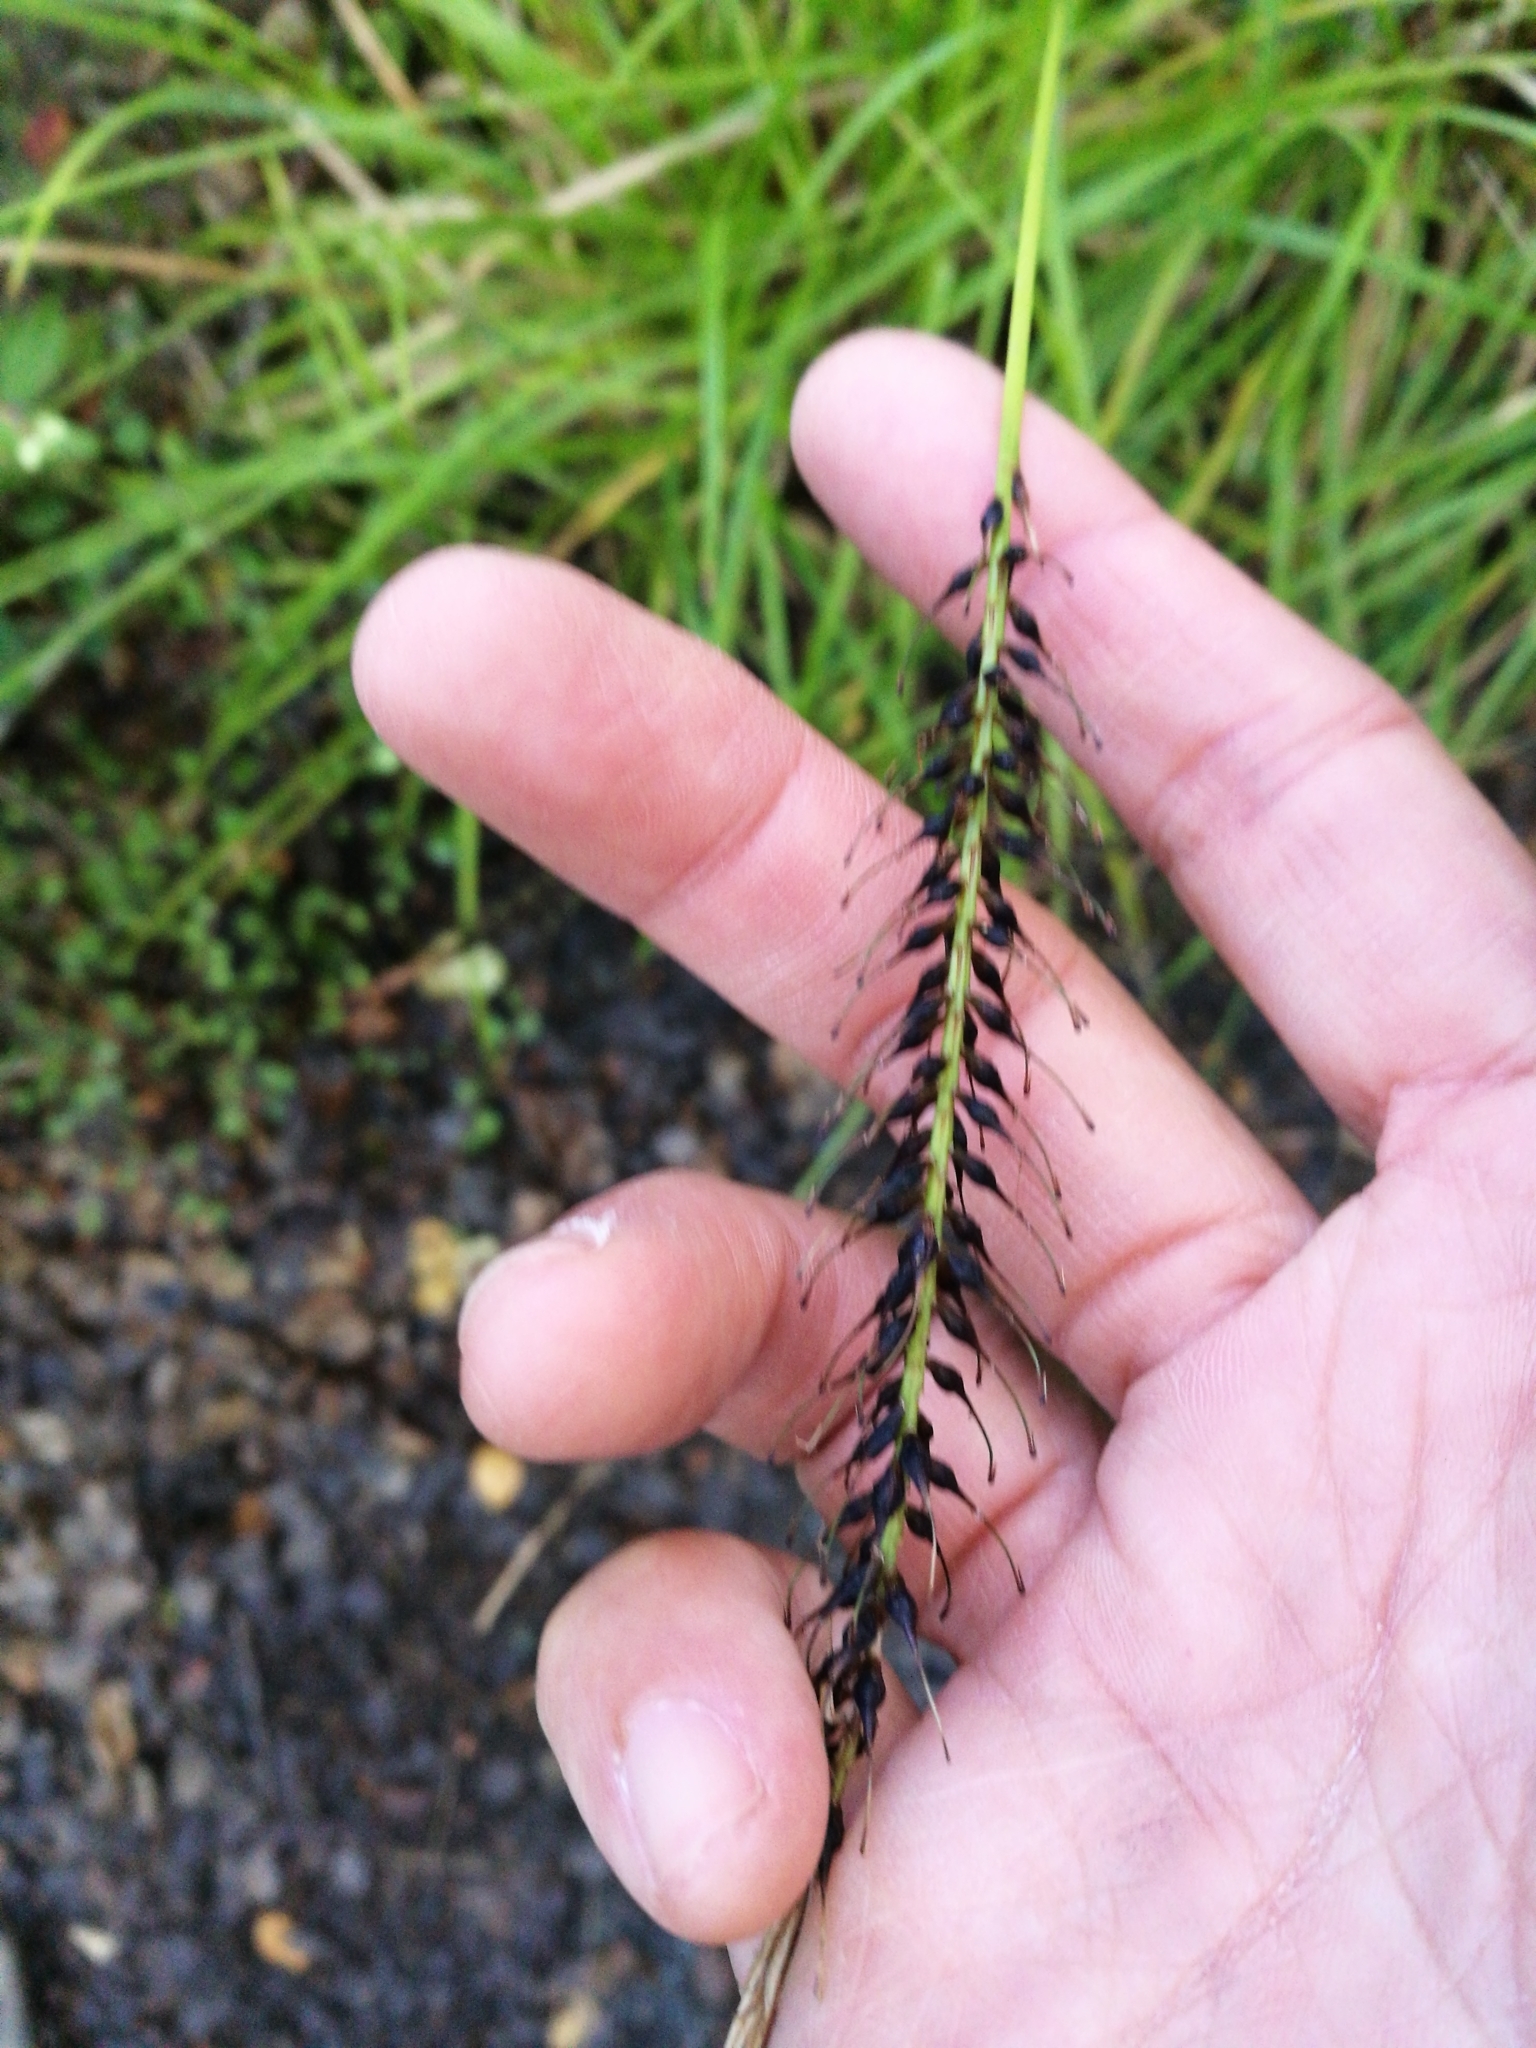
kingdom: Plantae
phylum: Tracheophyta
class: Liliopsida
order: Poales
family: Cyperaceae
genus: Carex
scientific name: Carex uncinata
